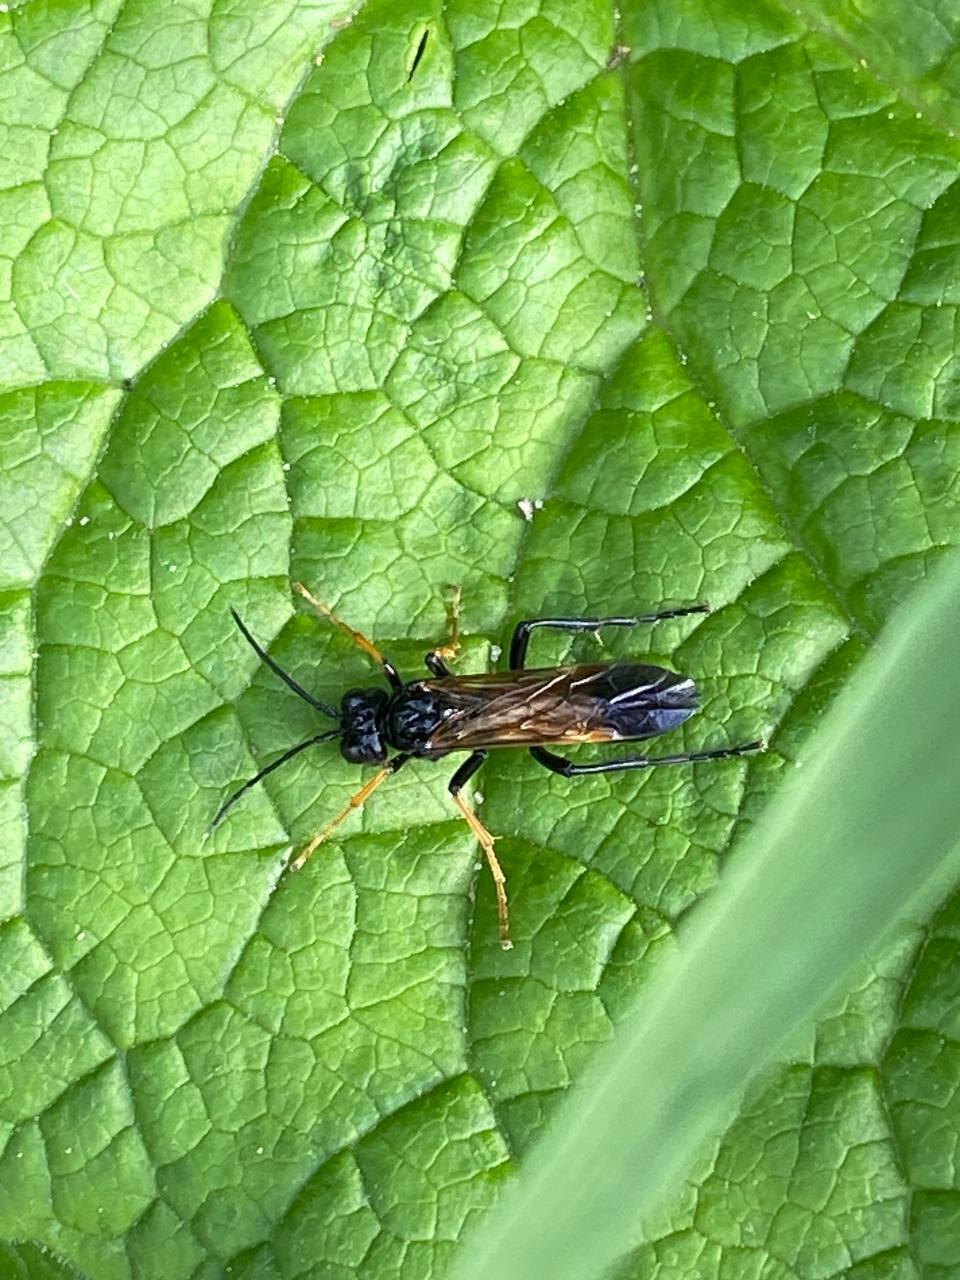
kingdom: Animalia
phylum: Arthropoda
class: Insecta
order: Hymenoptera
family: Tenthredinidae
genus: Tenthredo
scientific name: Tenthredo luteipennis
